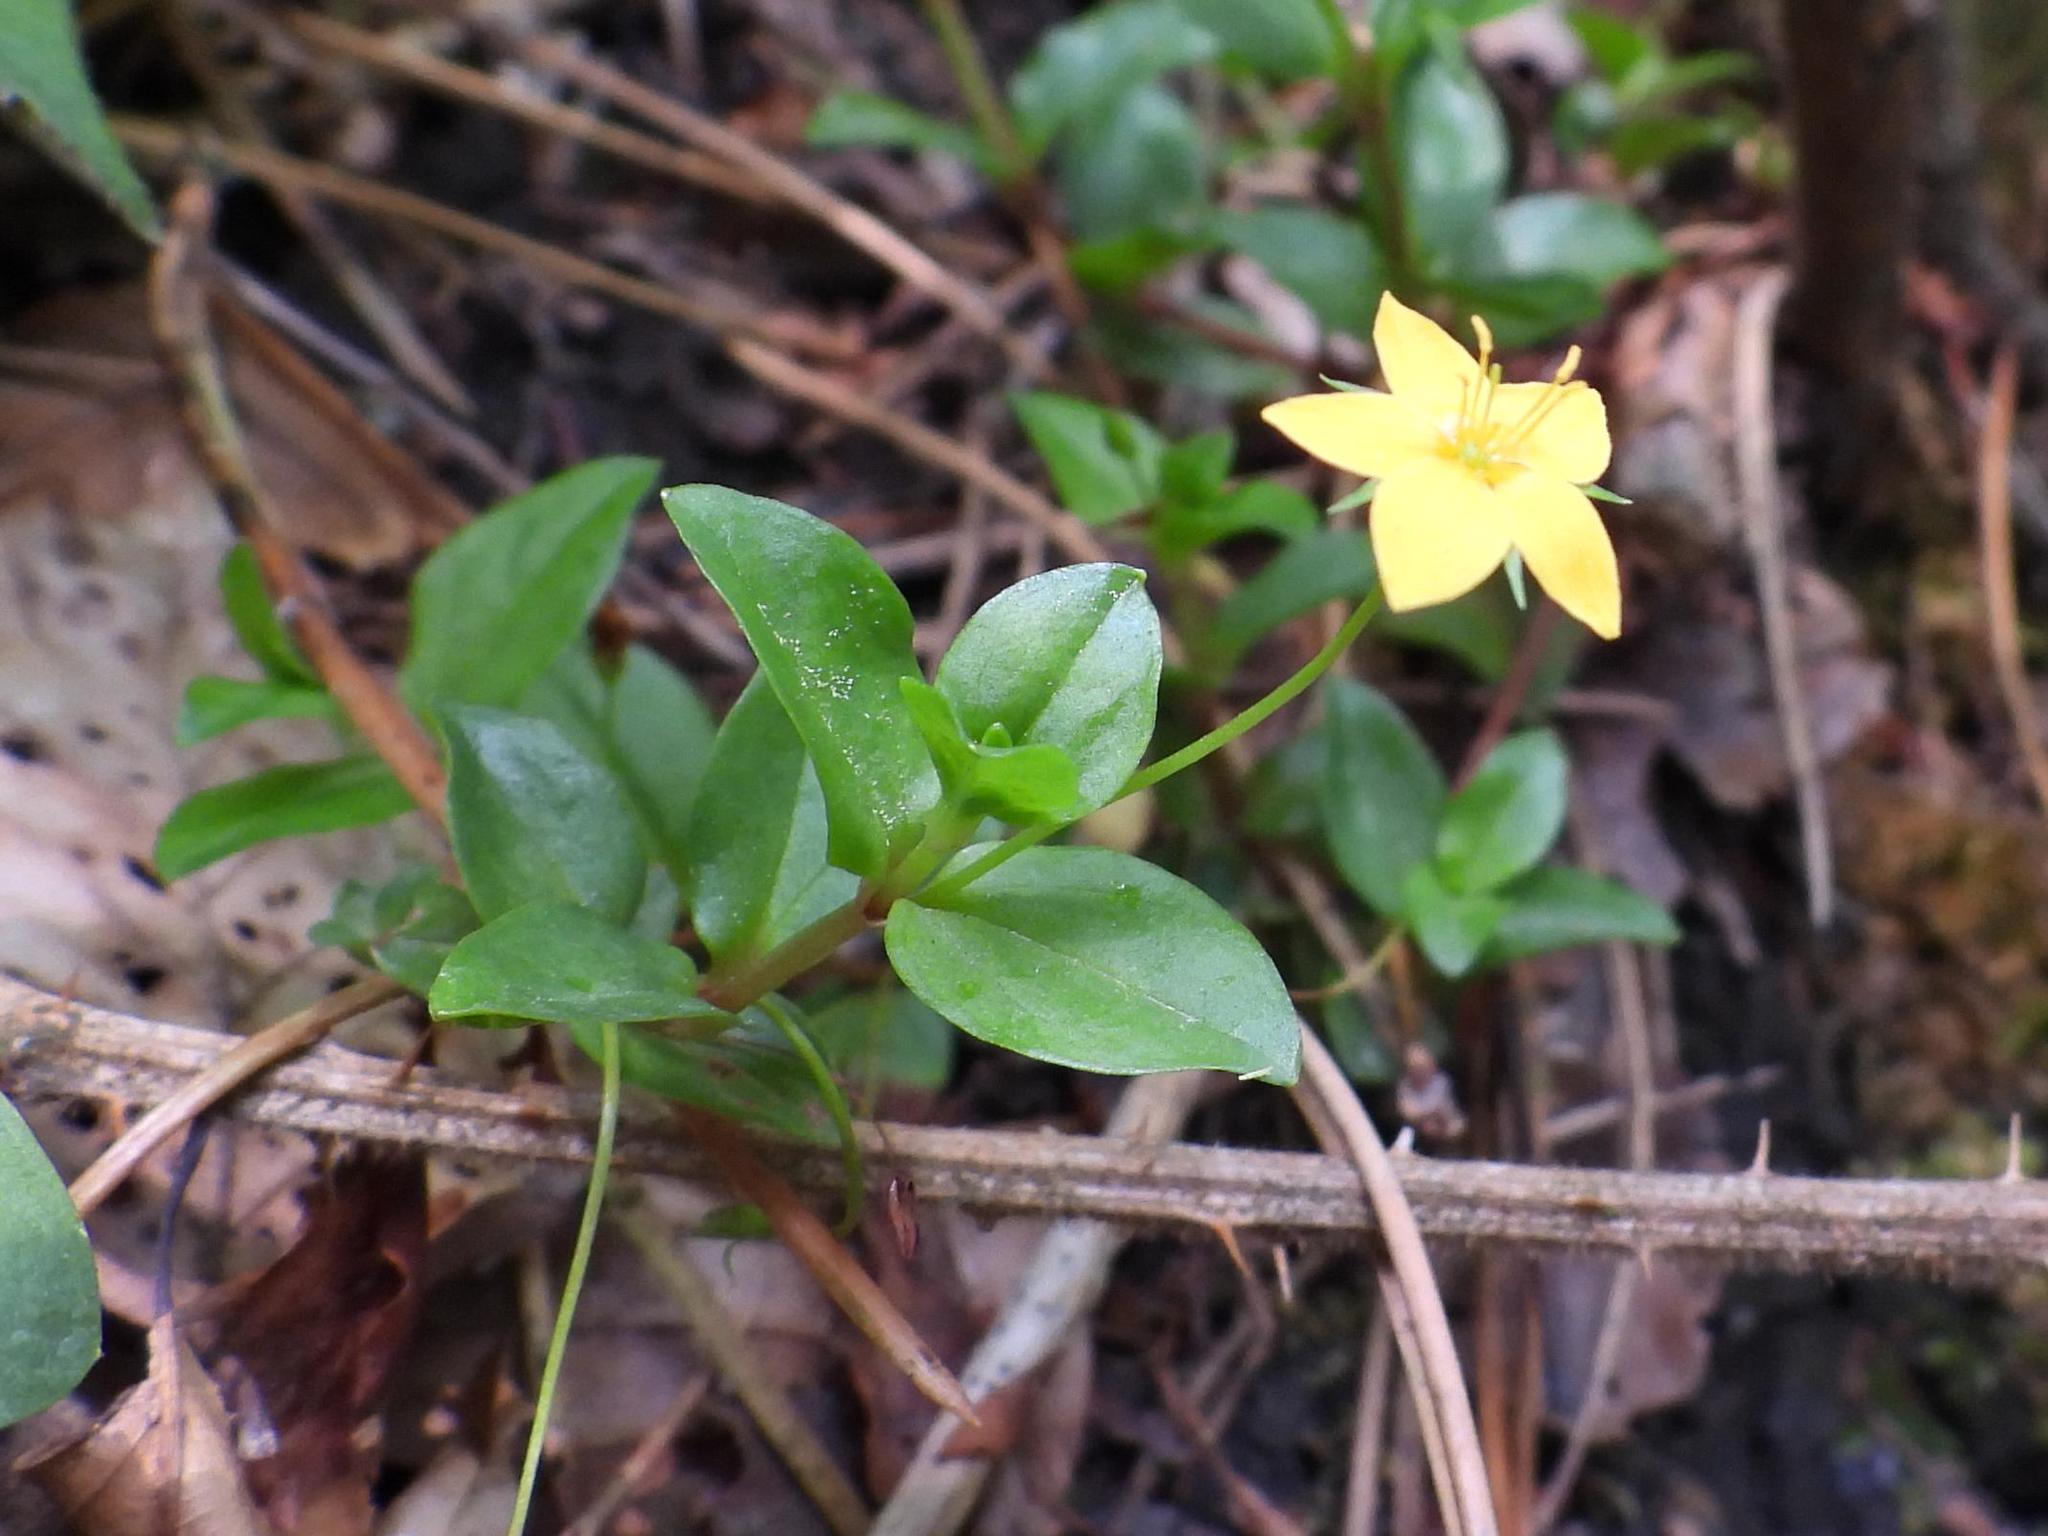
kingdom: Plantae
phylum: Tracheophyta
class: Magnoliopsida
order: Ericales
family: Primulaceae
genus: Lysimachia
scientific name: Lysimachia nemorum
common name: Yellow pimpernel
